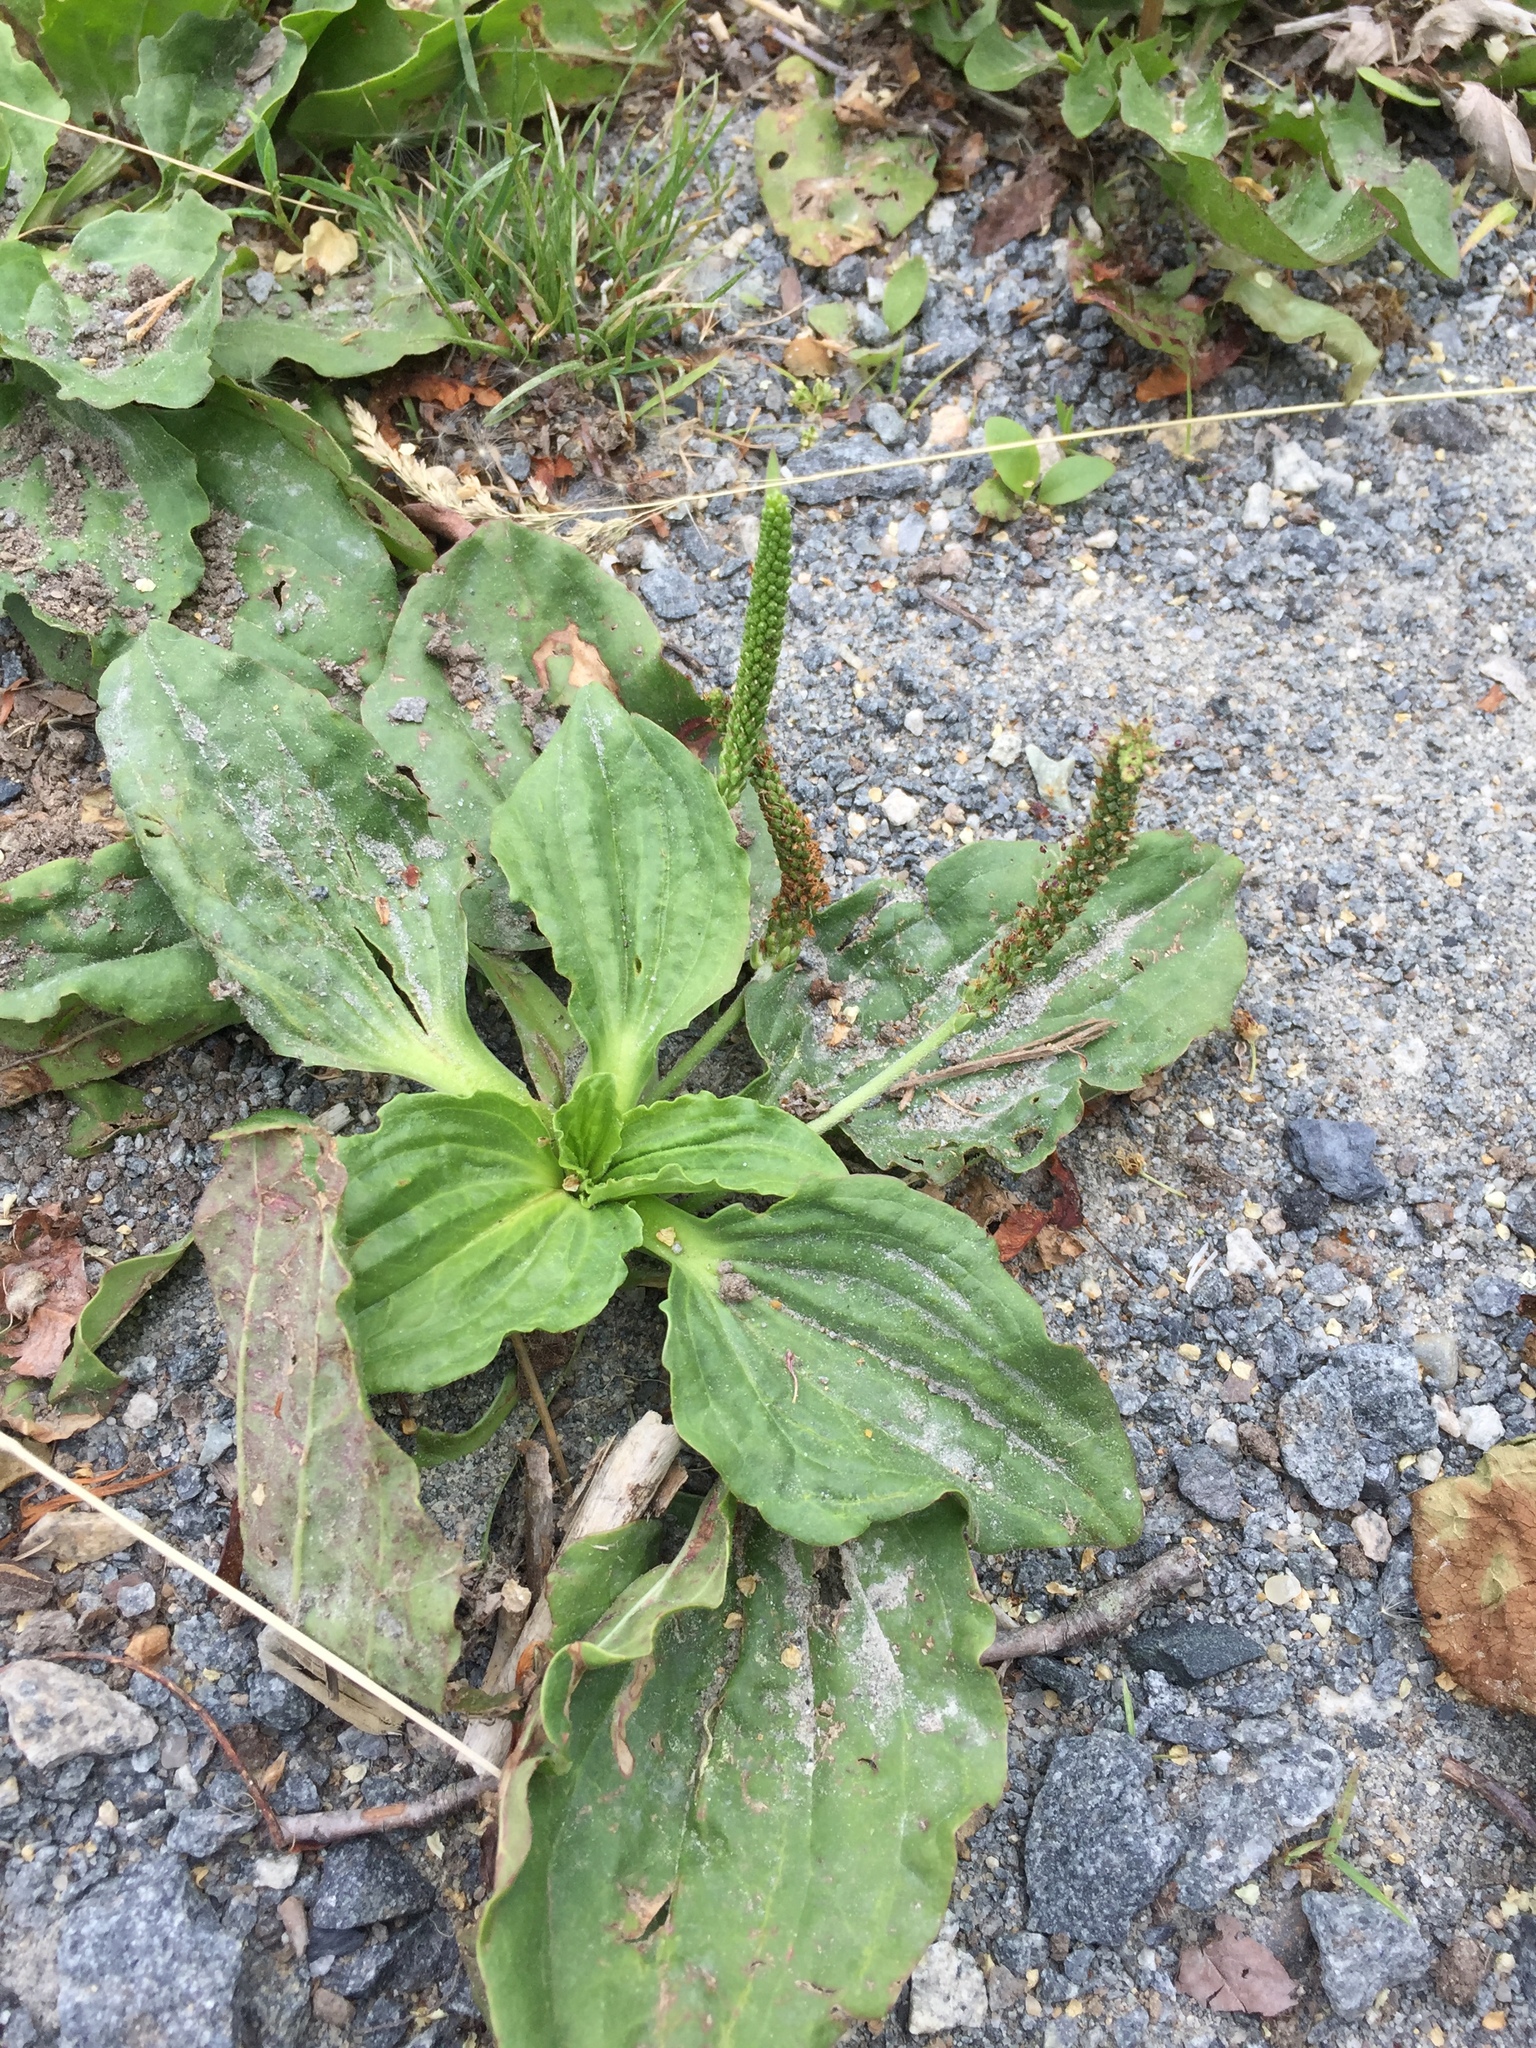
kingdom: Plantae
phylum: Tracheophyta
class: Magnoliopsida
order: Lamiales
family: Plantaginaceae
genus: Plantago
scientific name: Plantago major
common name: Common plantain
